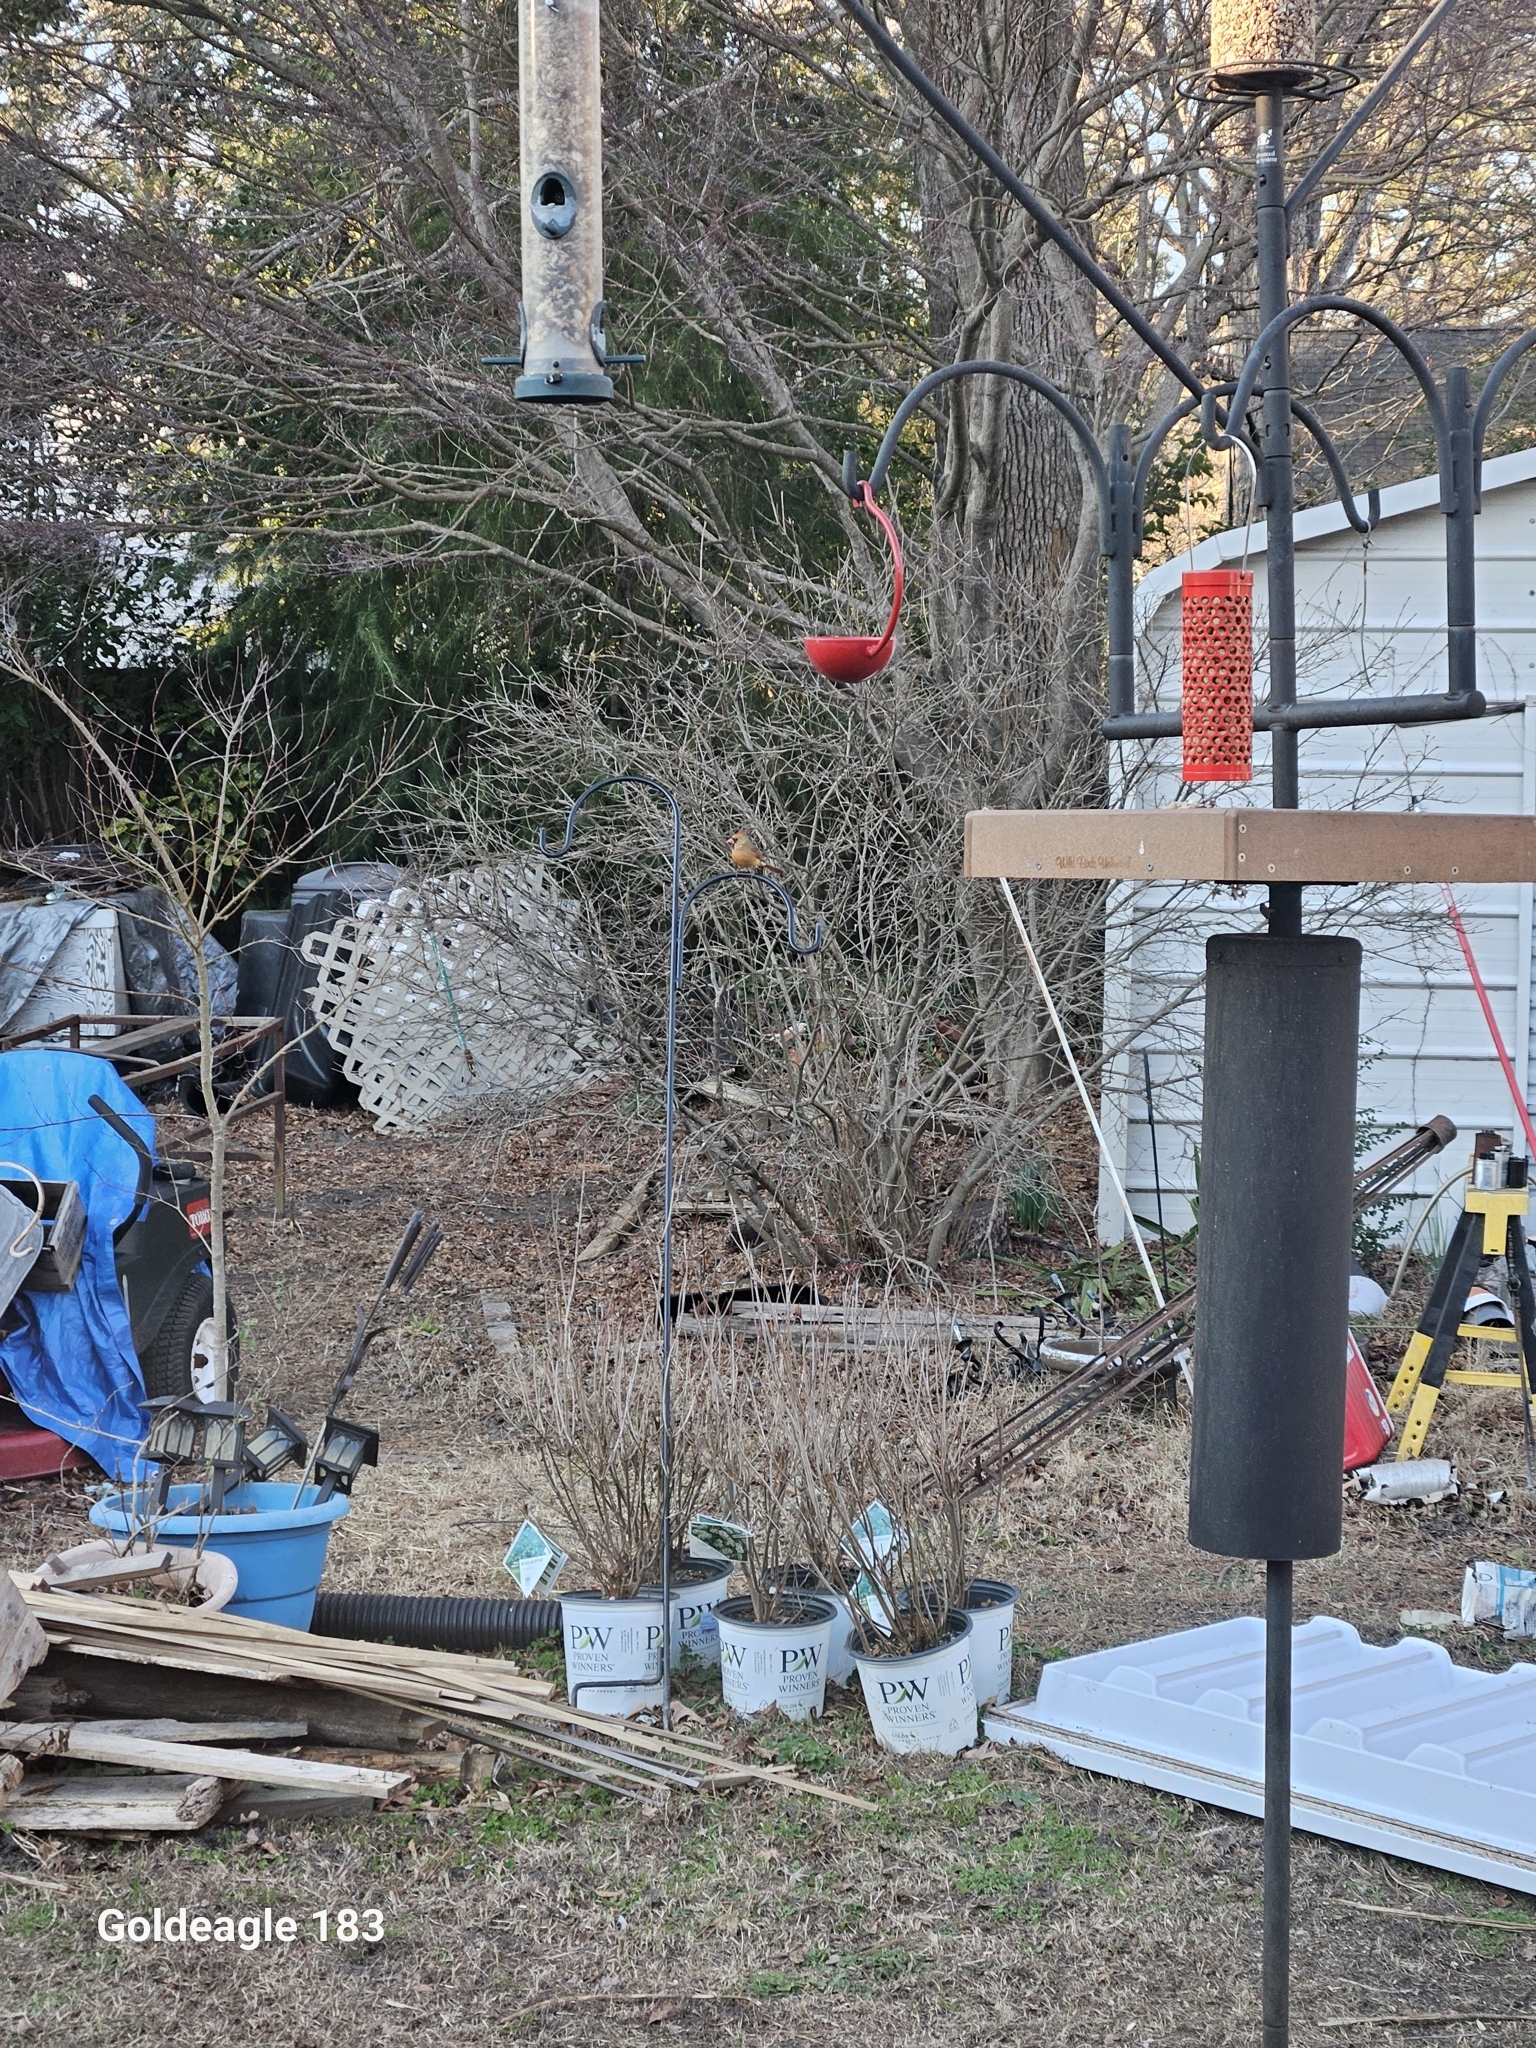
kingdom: Animalia
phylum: Chordata
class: Aves
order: Passeriformes
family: Cardinalidae
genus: Cardinalis
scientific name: Cardinalis cardinalis
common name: Northern cardinal
